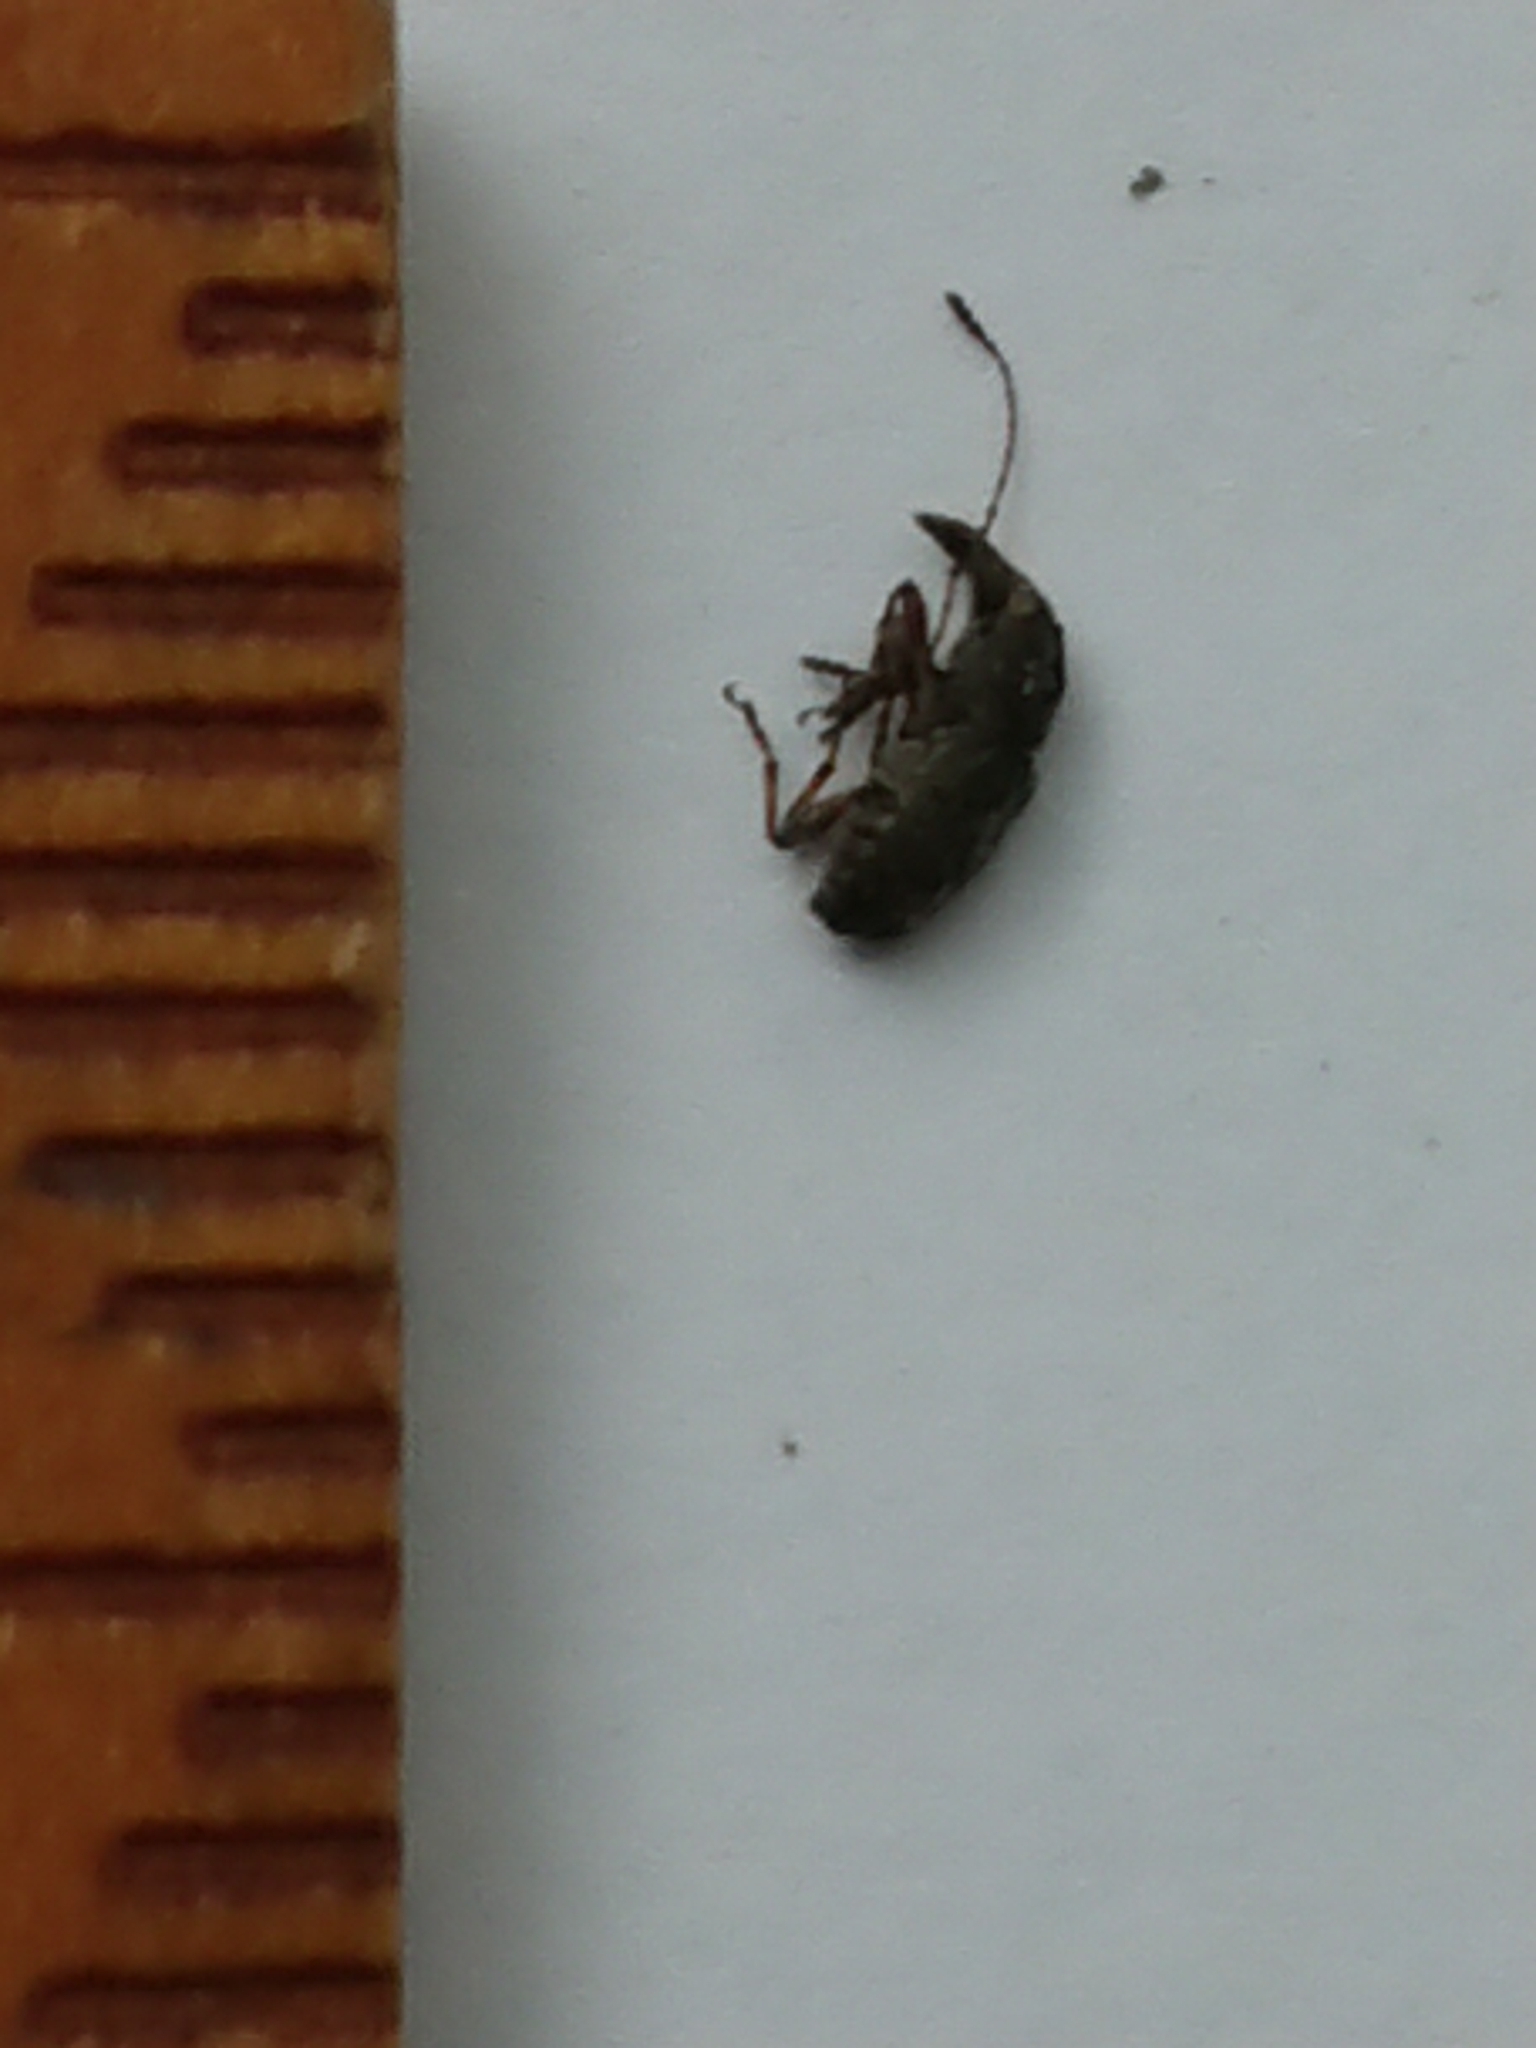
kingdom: Animalia
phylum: Arthropoda
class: Insecta
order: Coleoptera
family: Anthribidae
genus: Sharpius
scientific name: Sharpius
